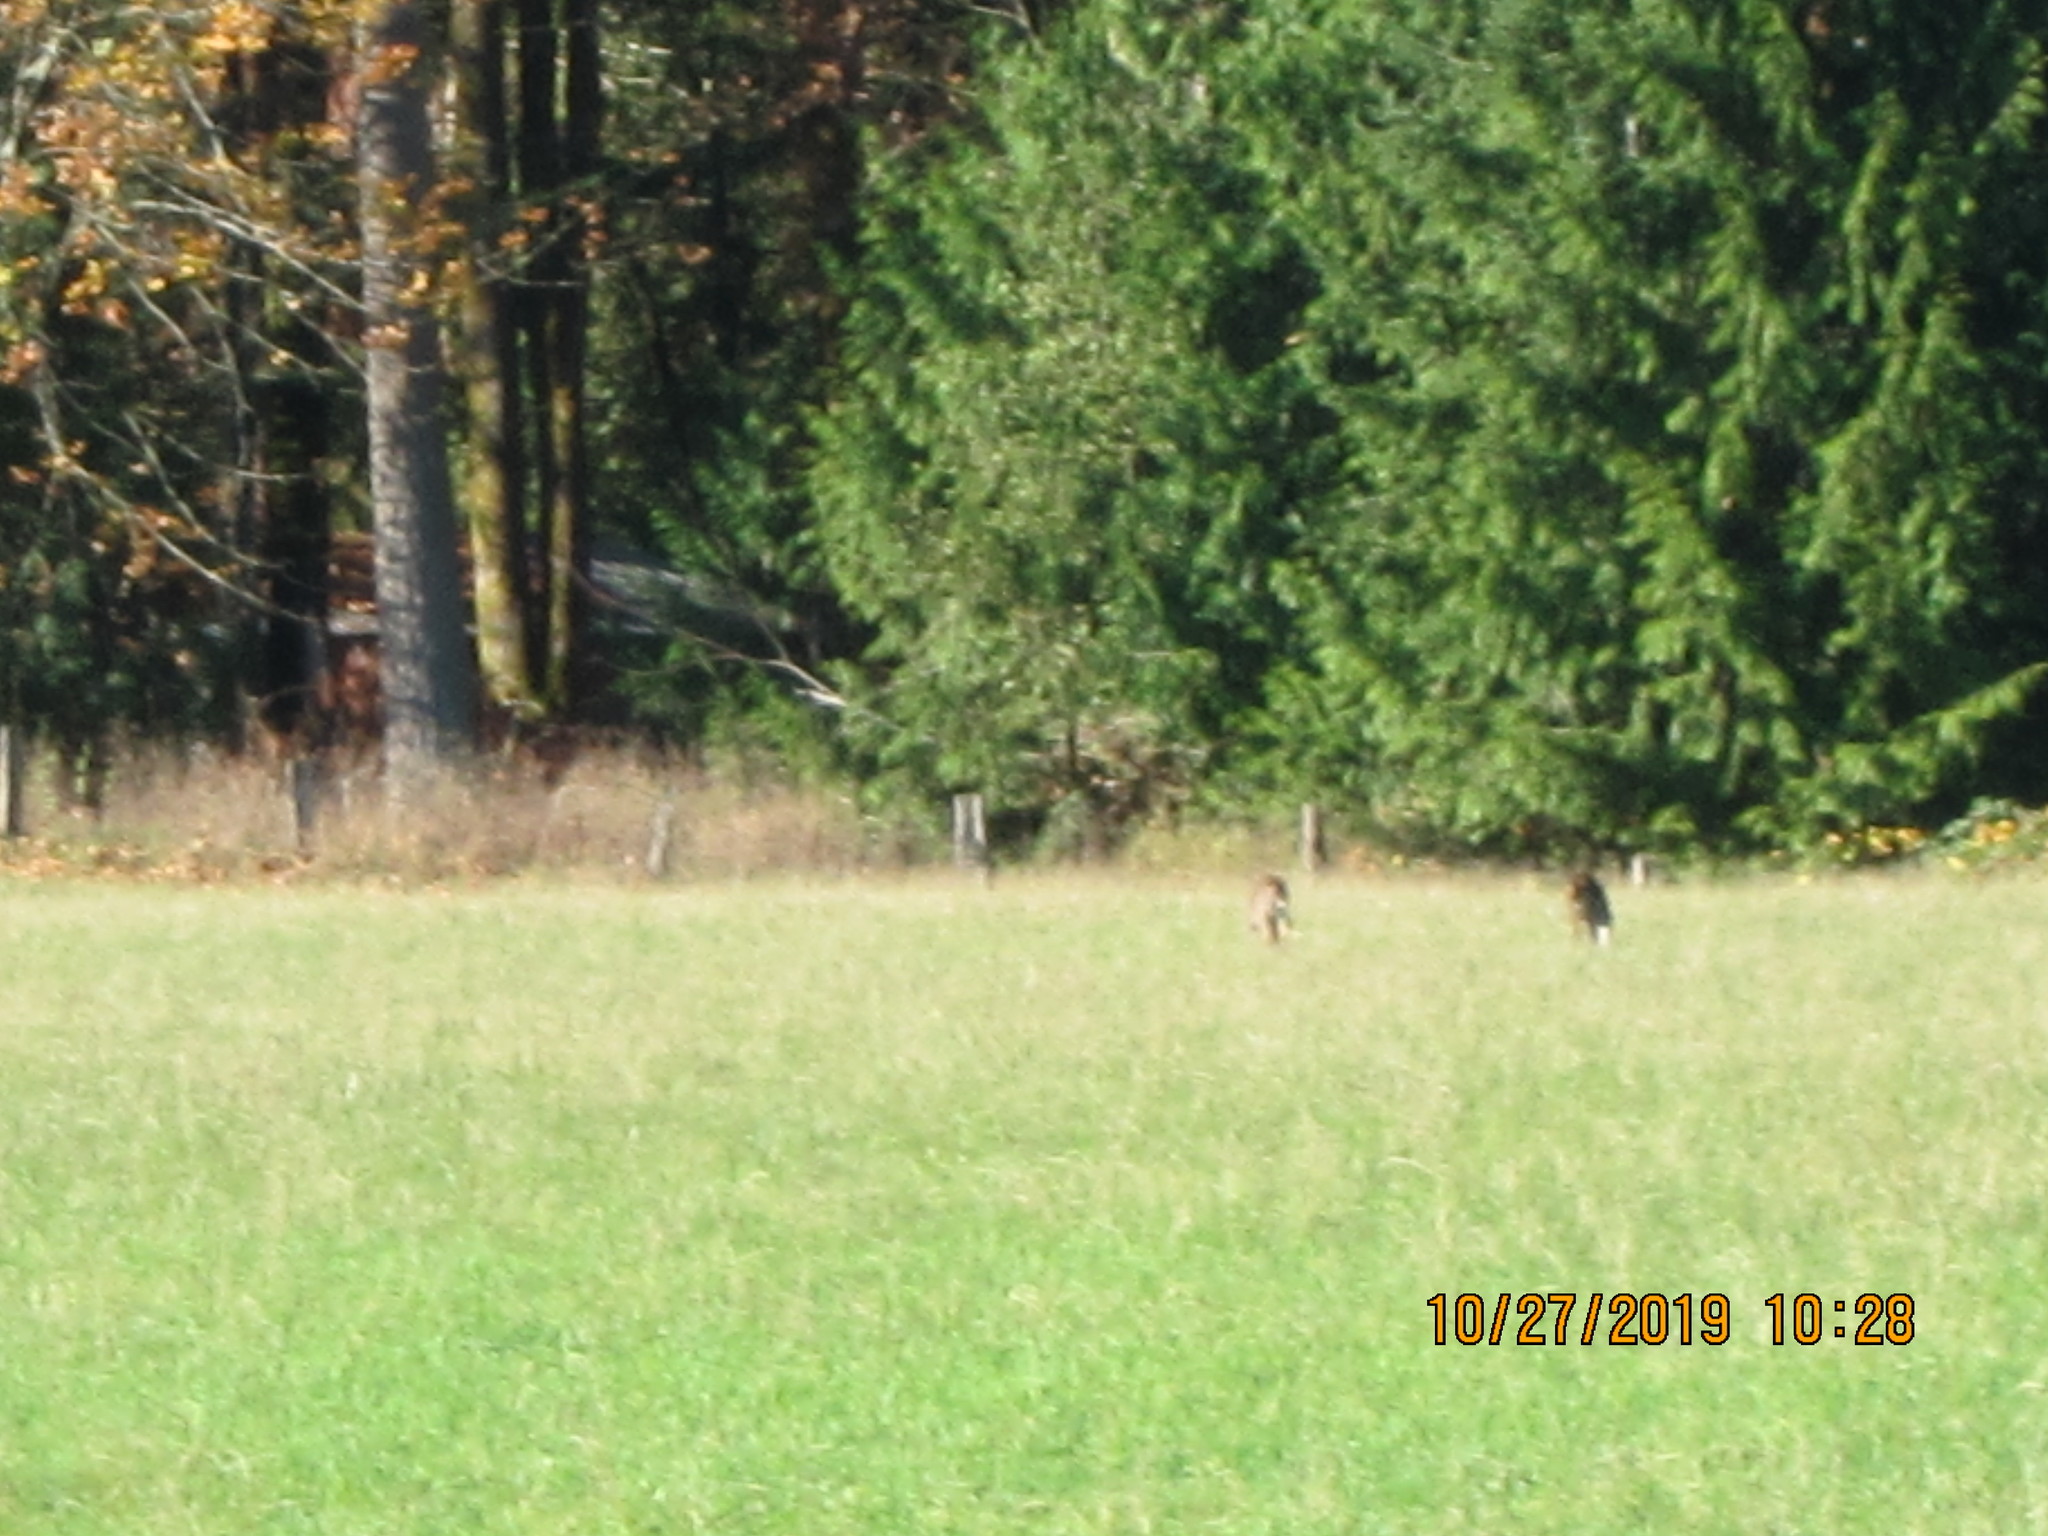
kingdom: Animalia
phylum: Chordata
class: Mammalia
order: Artiodactyla
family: Cervidae
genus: Odocoileus
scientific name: Odocoileus hemionus
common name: Mule deer
